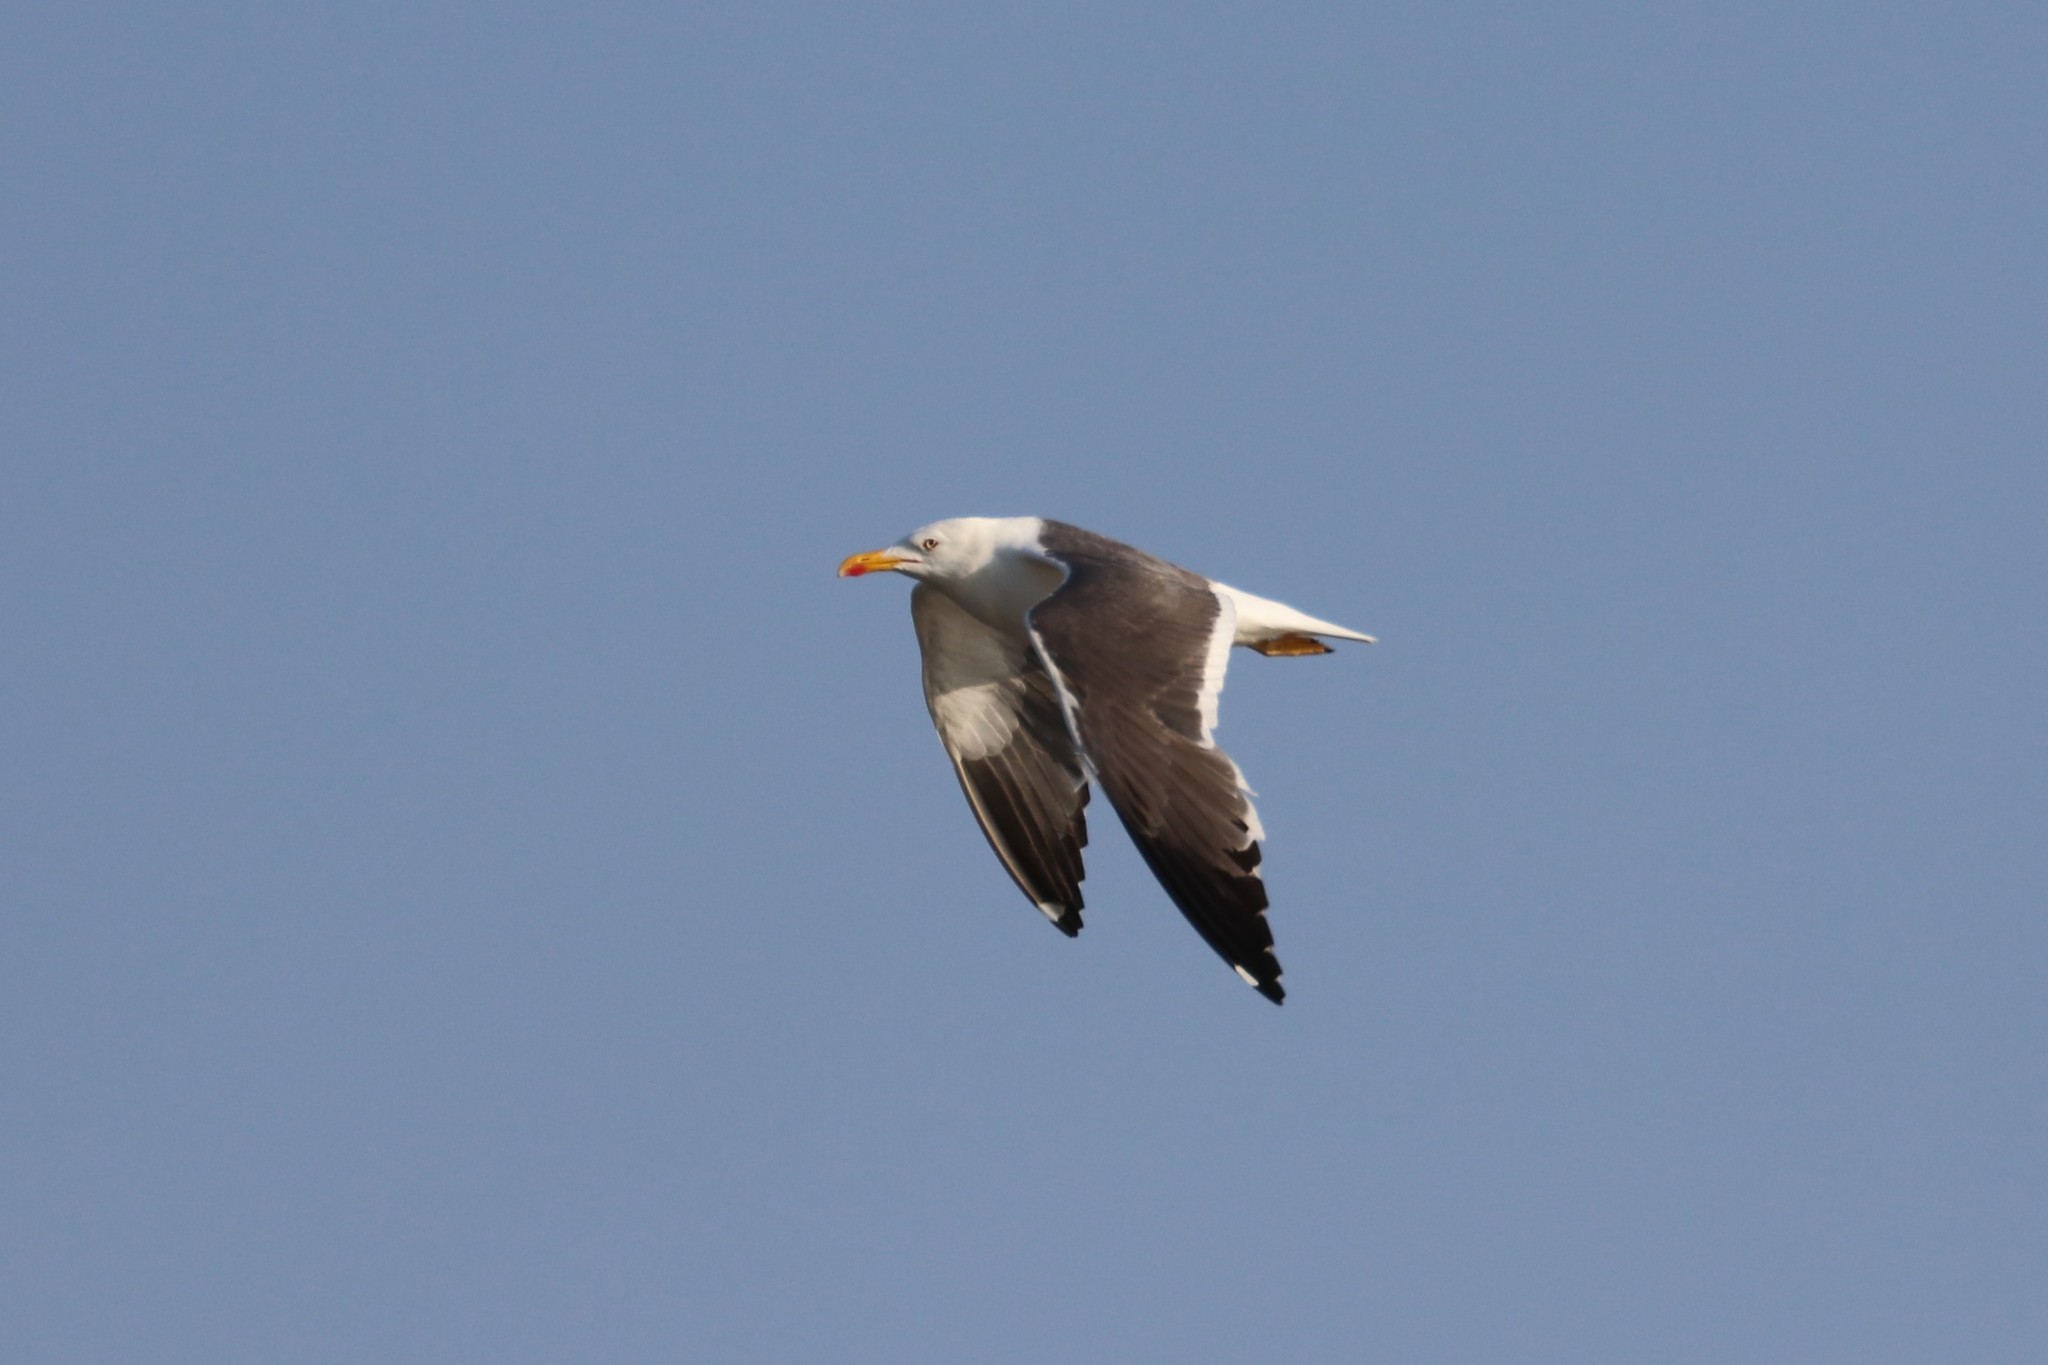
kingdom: Animalia
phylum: Chordata
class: Aves
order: Charadriiformes
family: Laridae
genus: Larus
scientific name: Larus fuscus
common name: Lesser black-backed gull
